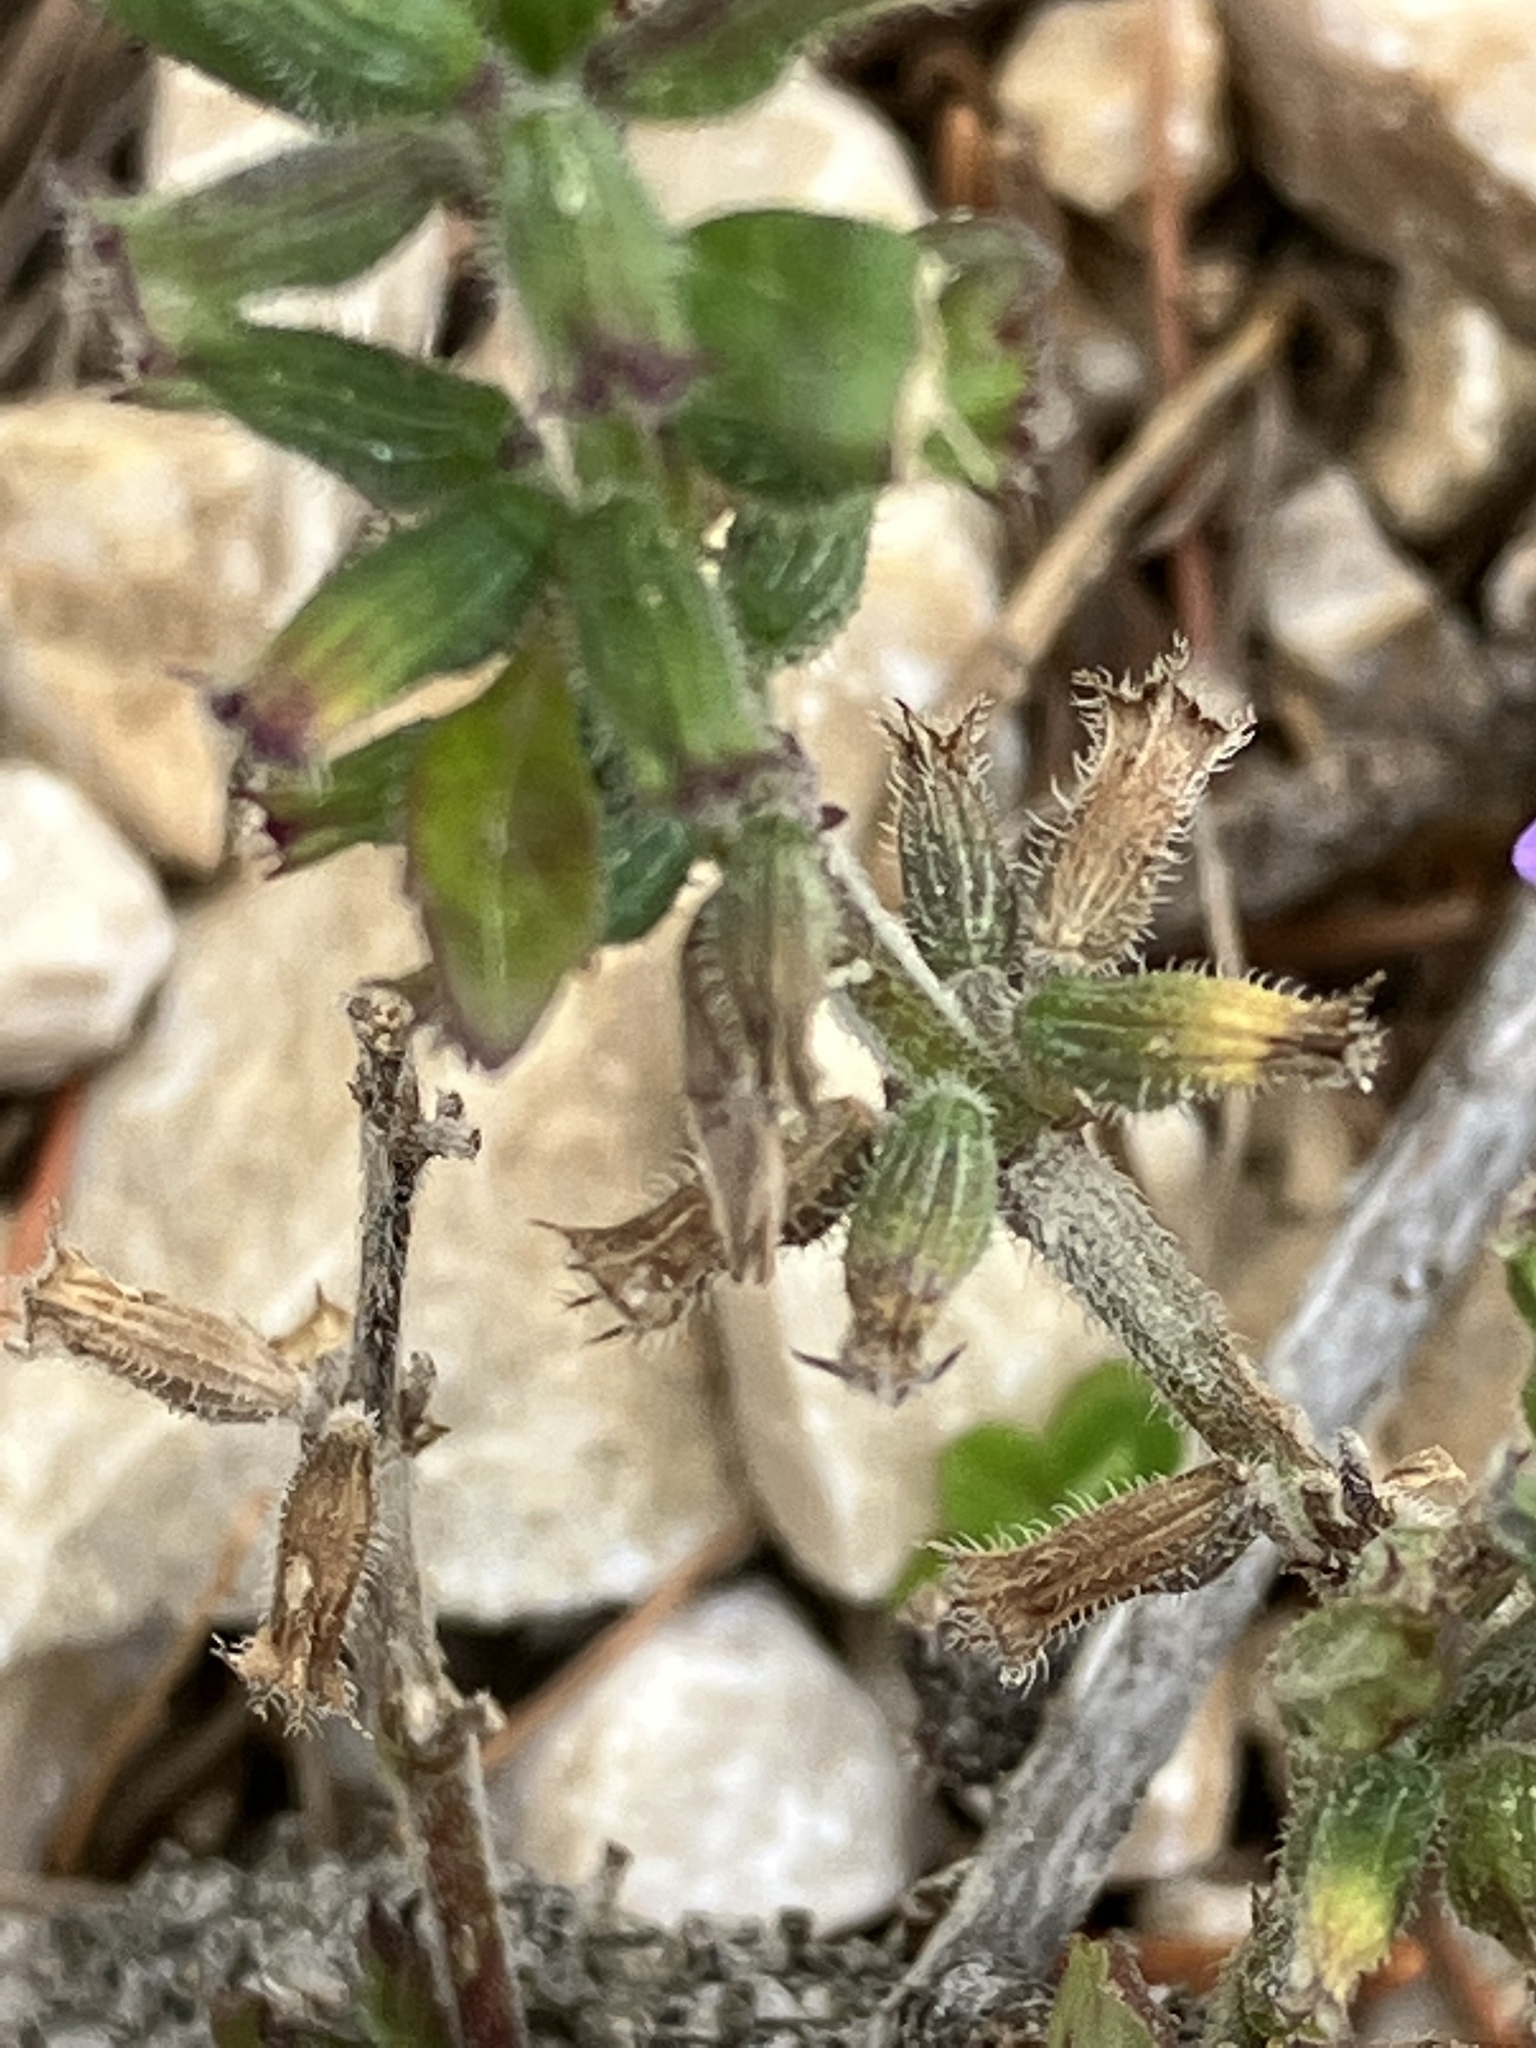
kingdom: Plantae
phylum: Tracheophyta
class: Magnoliopsida
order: Lamiales
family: Lamiaceae
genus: Clinopodium
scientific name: Clinopodium alpinum
